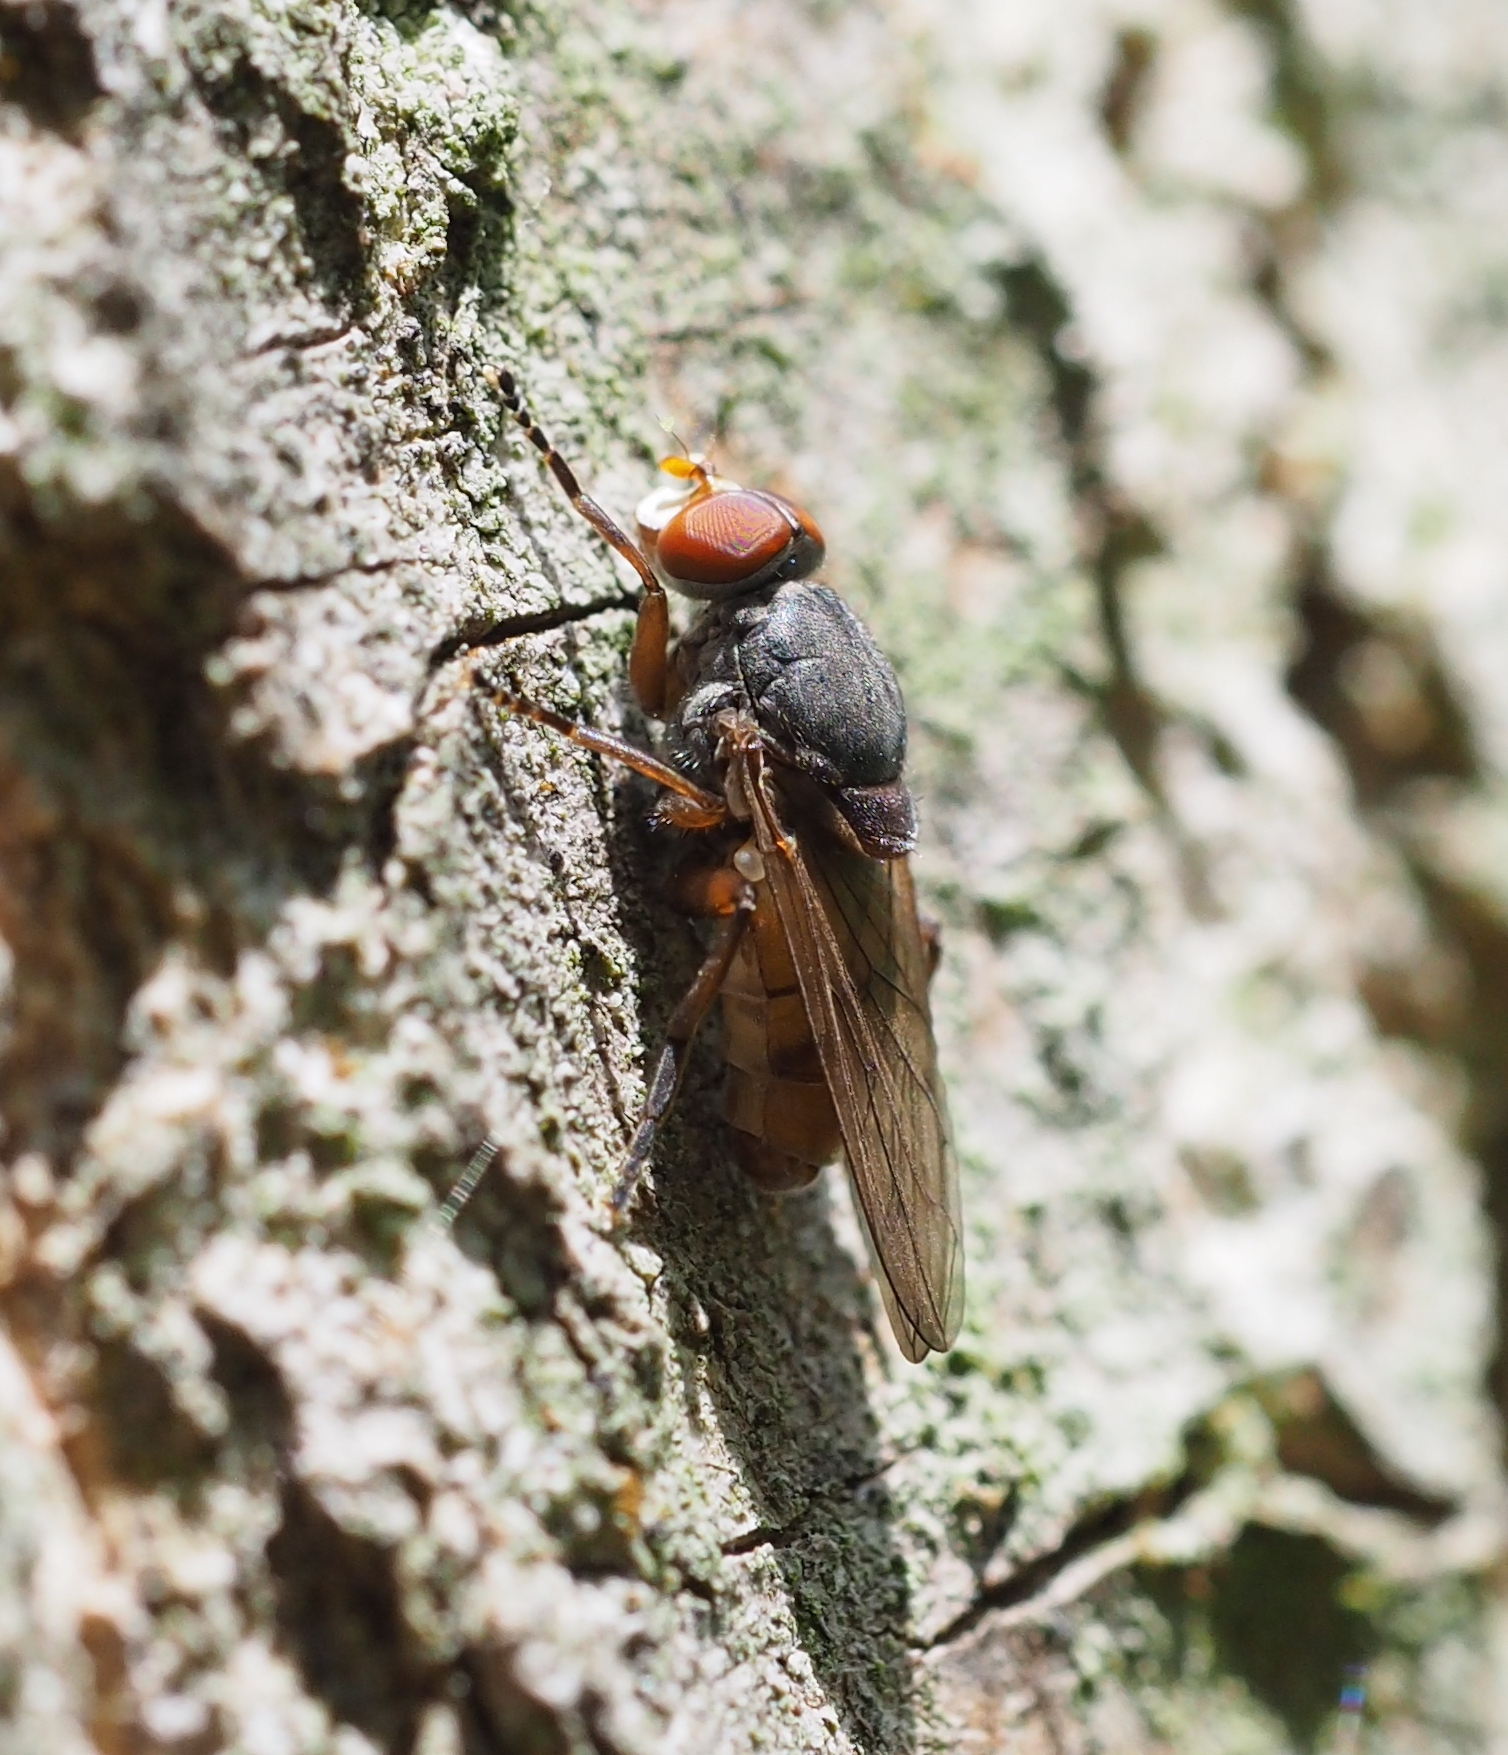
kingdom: Animalia
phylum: Arthropoda
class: Insecta
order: Diptera
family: Syrphidae
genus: Brachyopa
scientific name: Brachyopa bicolor
